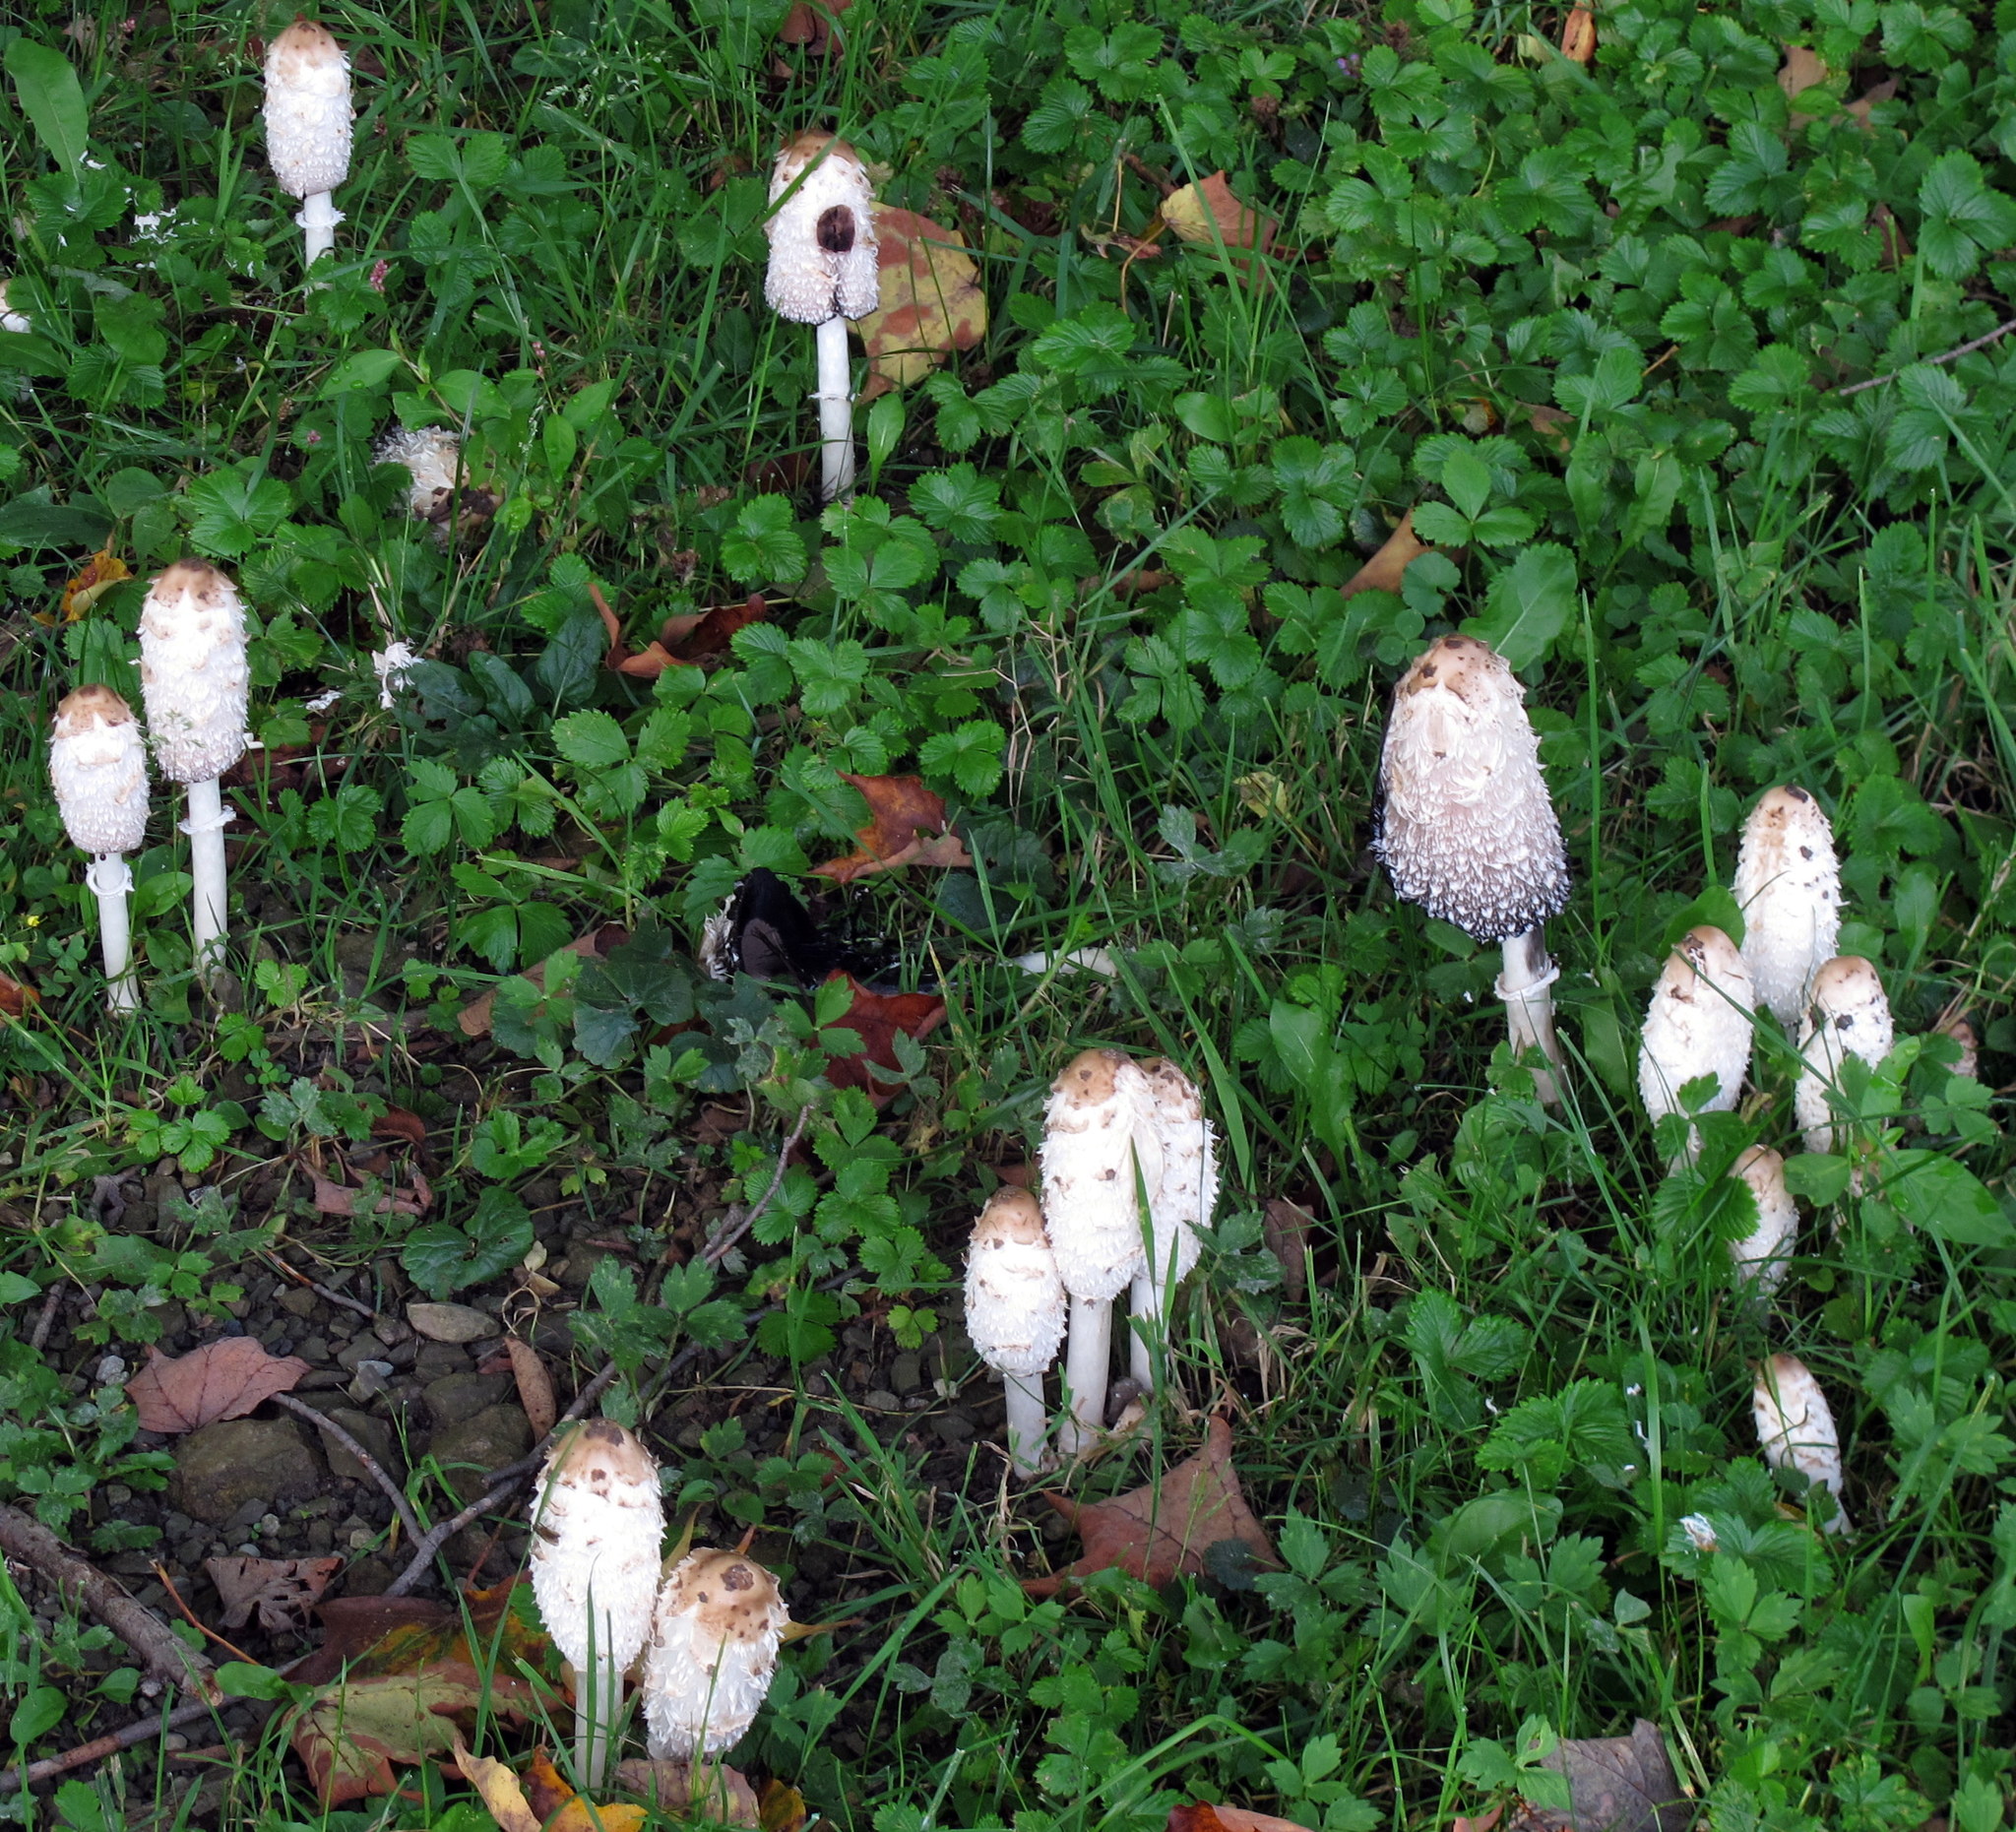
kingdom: Fungi
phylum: Basidiomycota
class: Agaricomycetes
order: Agaricales
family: Agaricaceae
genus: Coprinus
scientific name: Coprinus comatus
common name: Lawyer's wig
